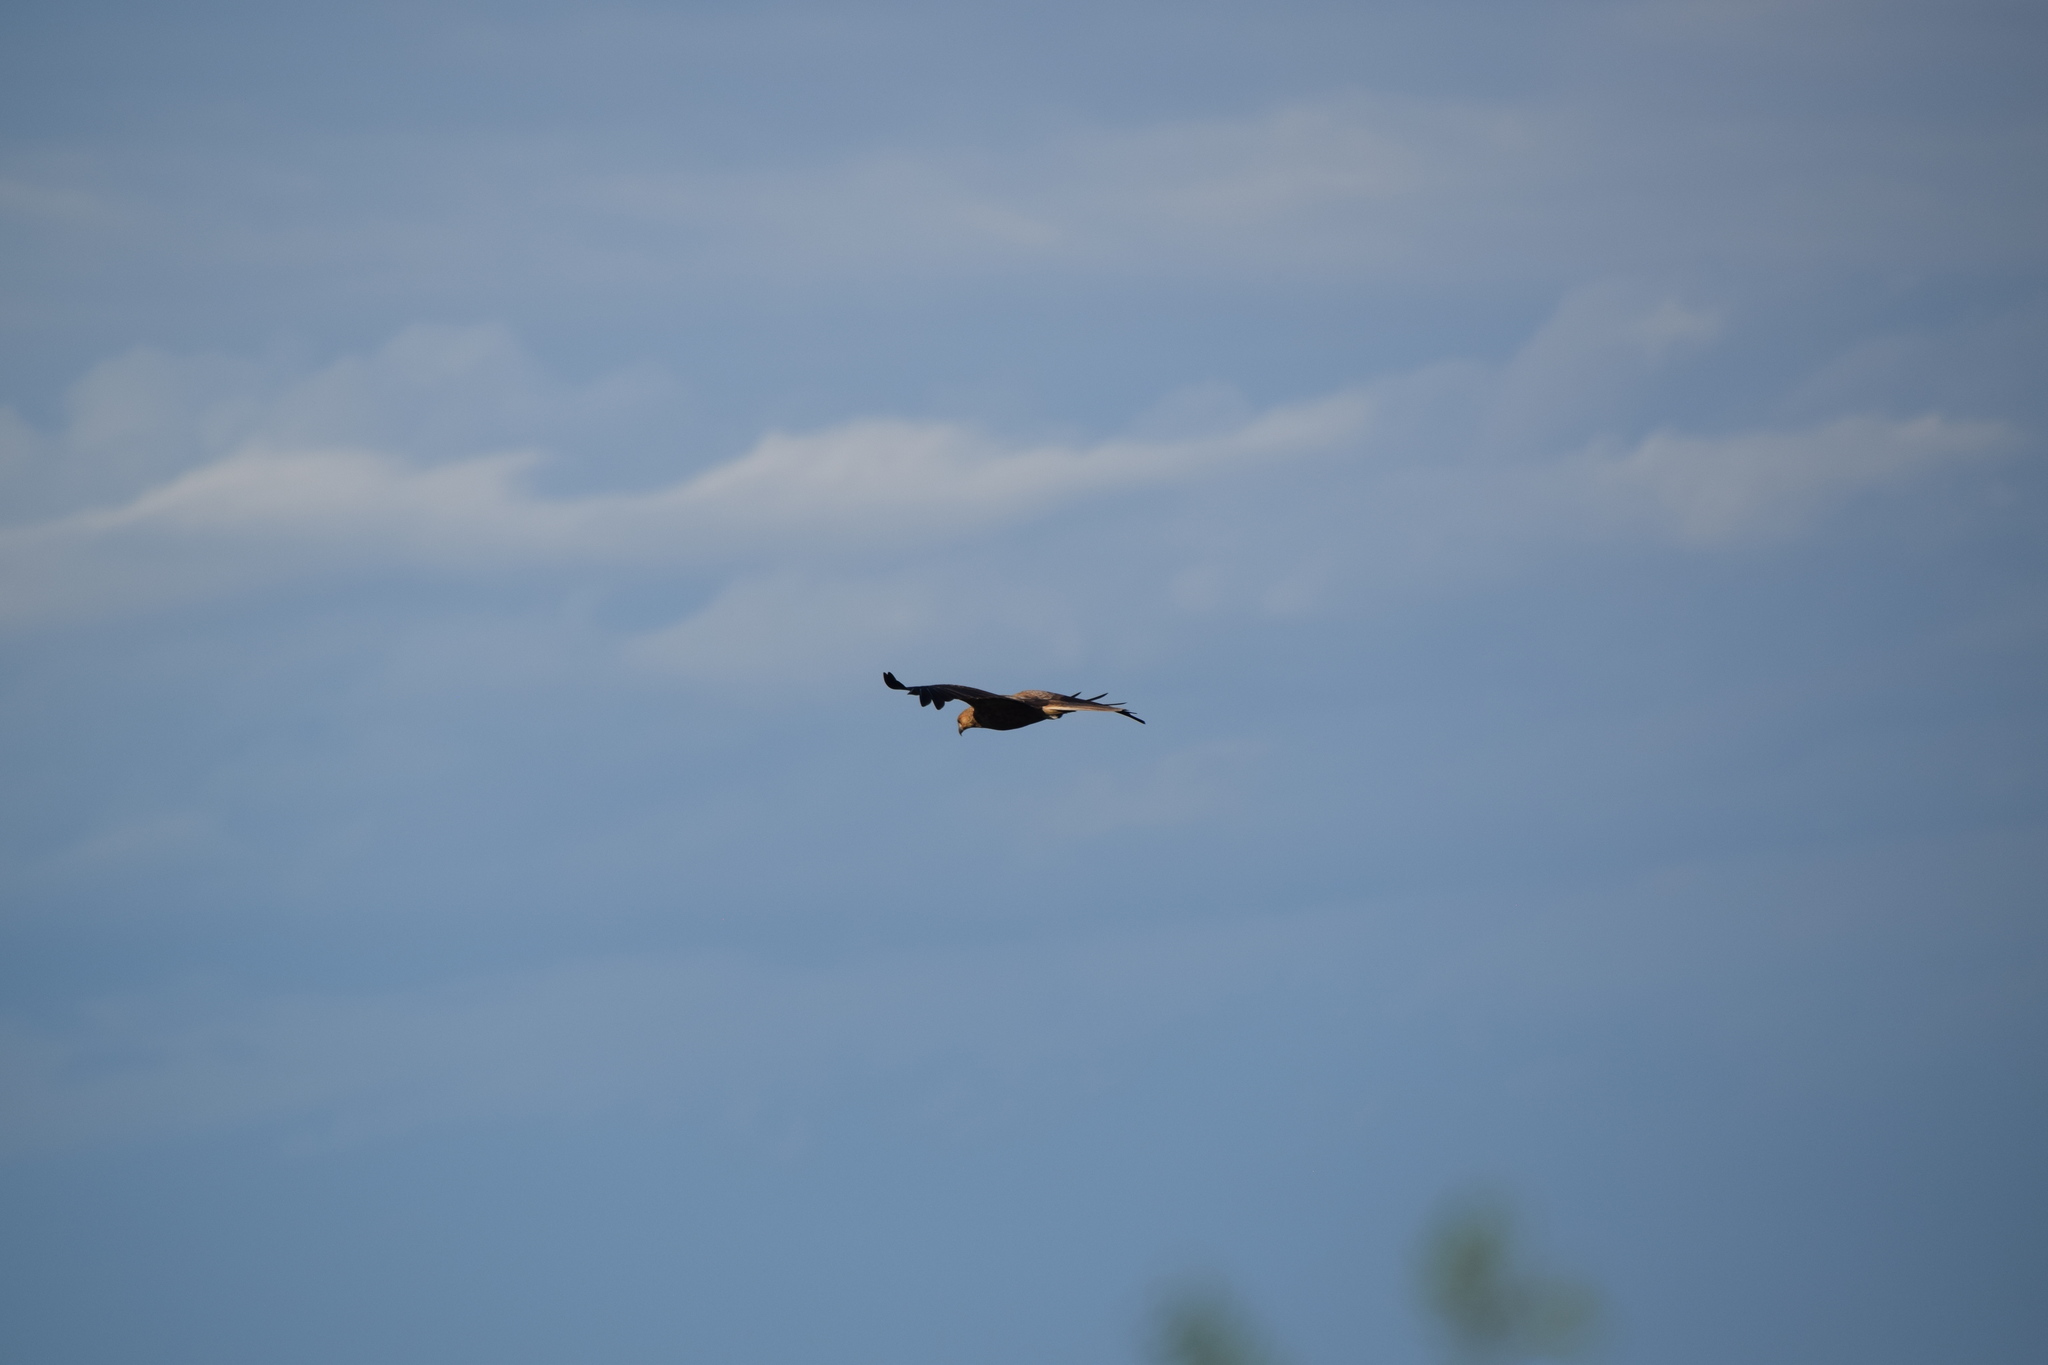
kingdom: Animalia
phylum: Chordata
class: Aves
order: Accipitriformes
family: Accipitridae
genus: Haliastur
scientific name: Haliastur sphenurus
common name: Whistling kite
